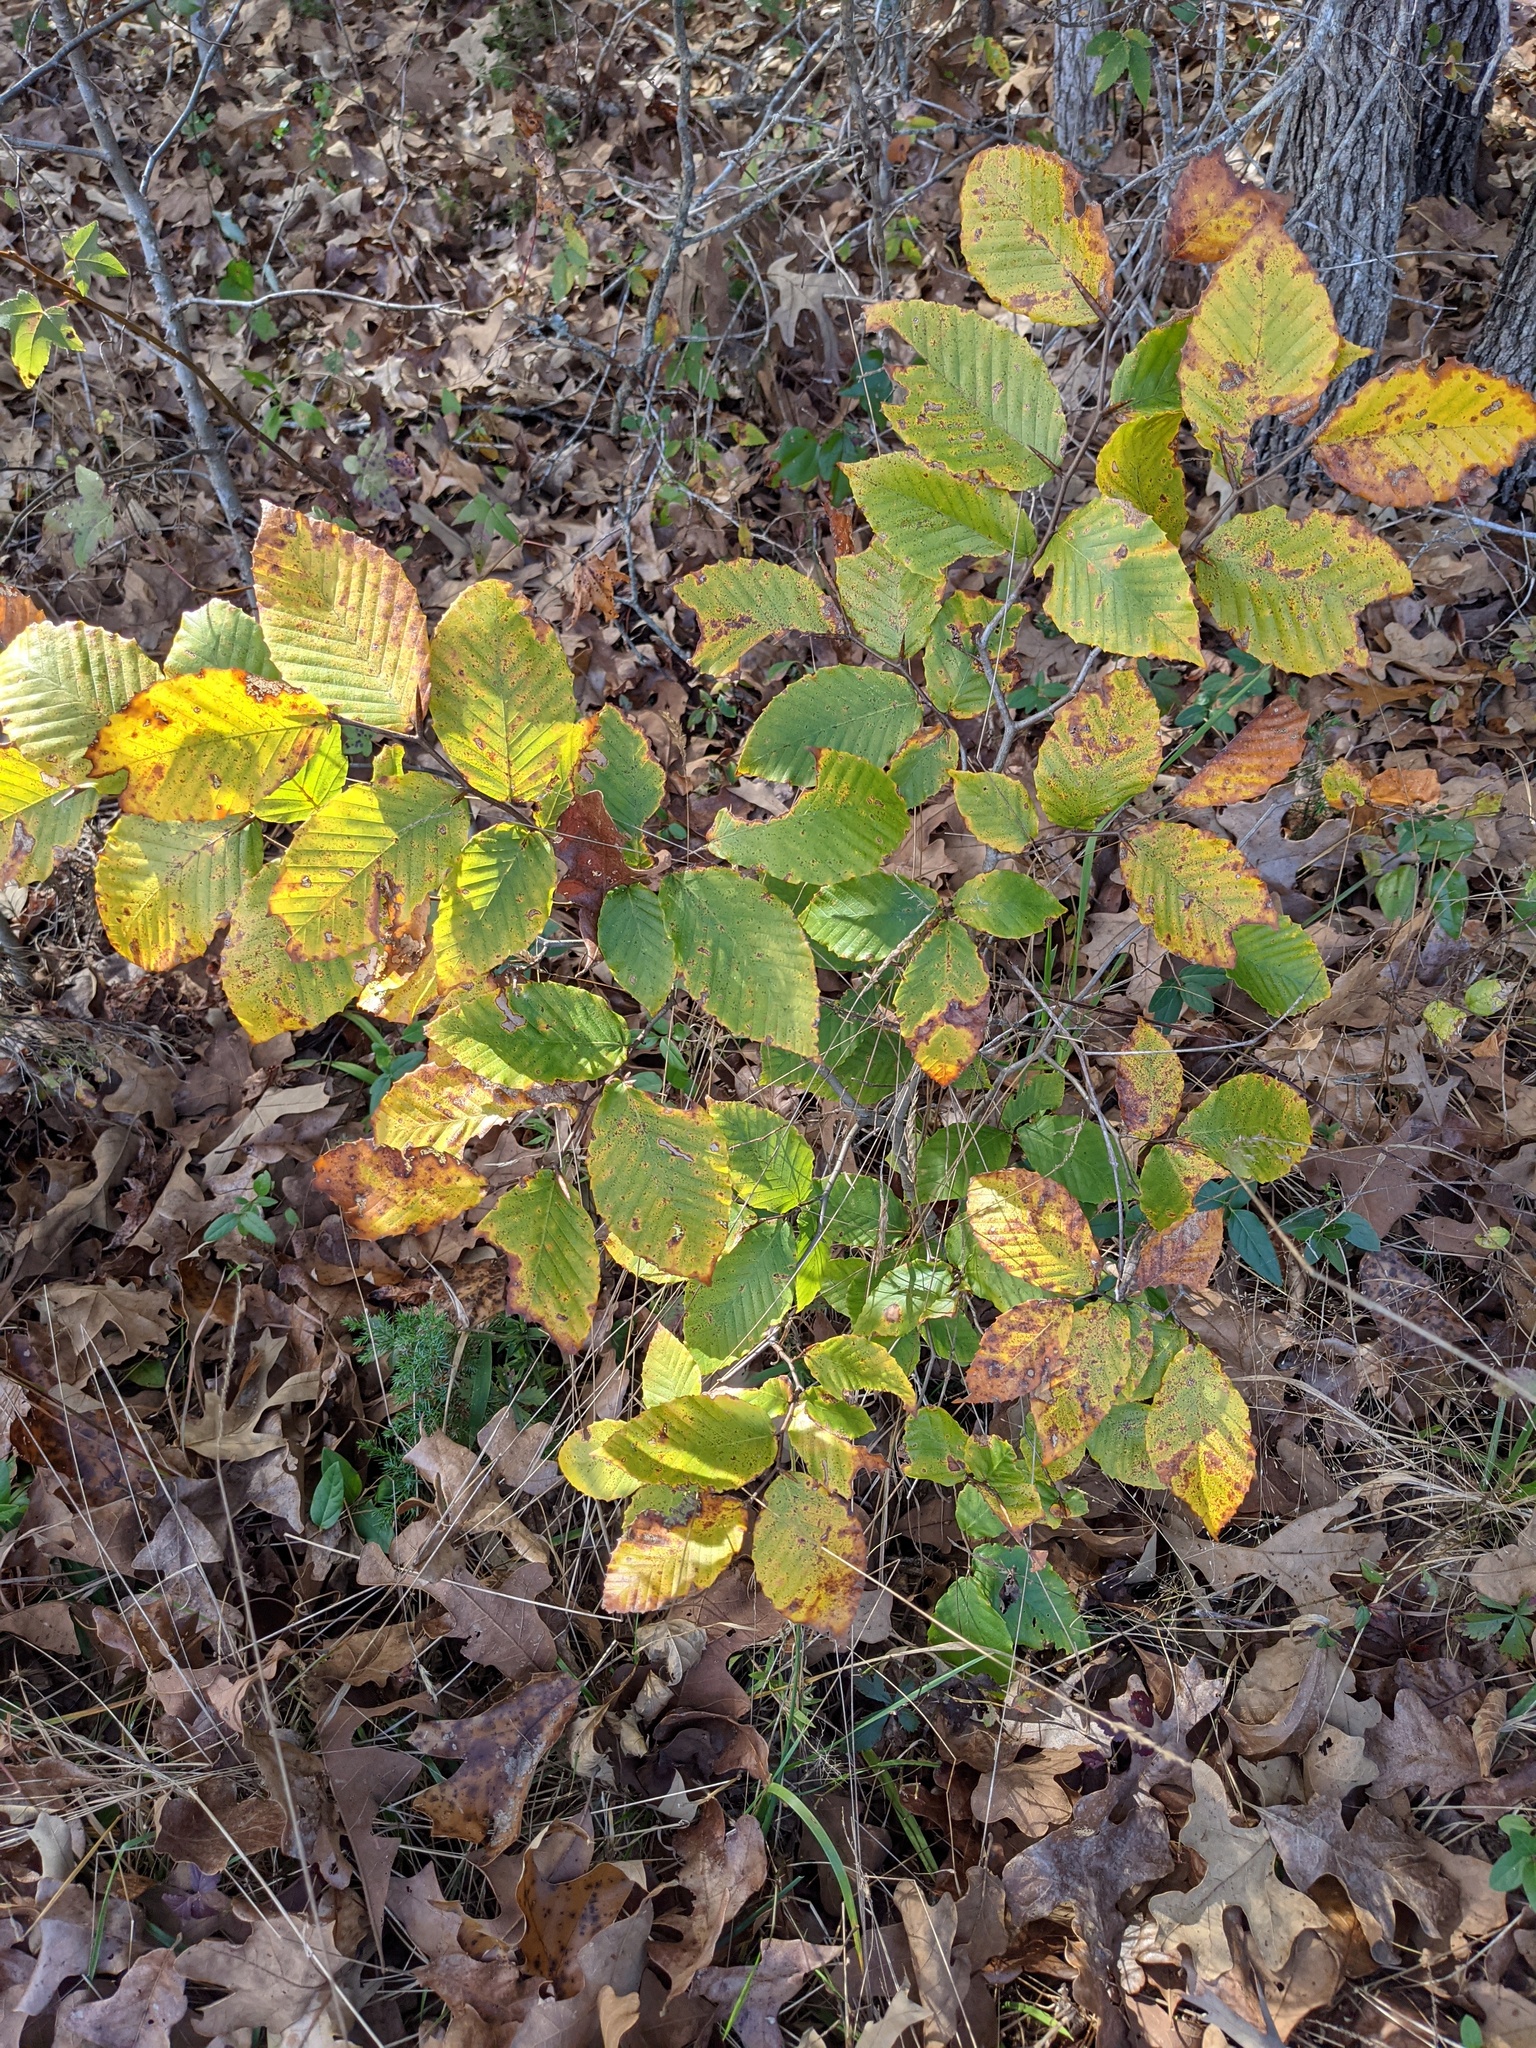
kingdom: Plantae
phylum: Tracheophyta
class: Magnoliopsida
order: Fagales
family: Fagaceae
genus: Fagus
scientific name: Fagus grandifolia
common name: American beech
